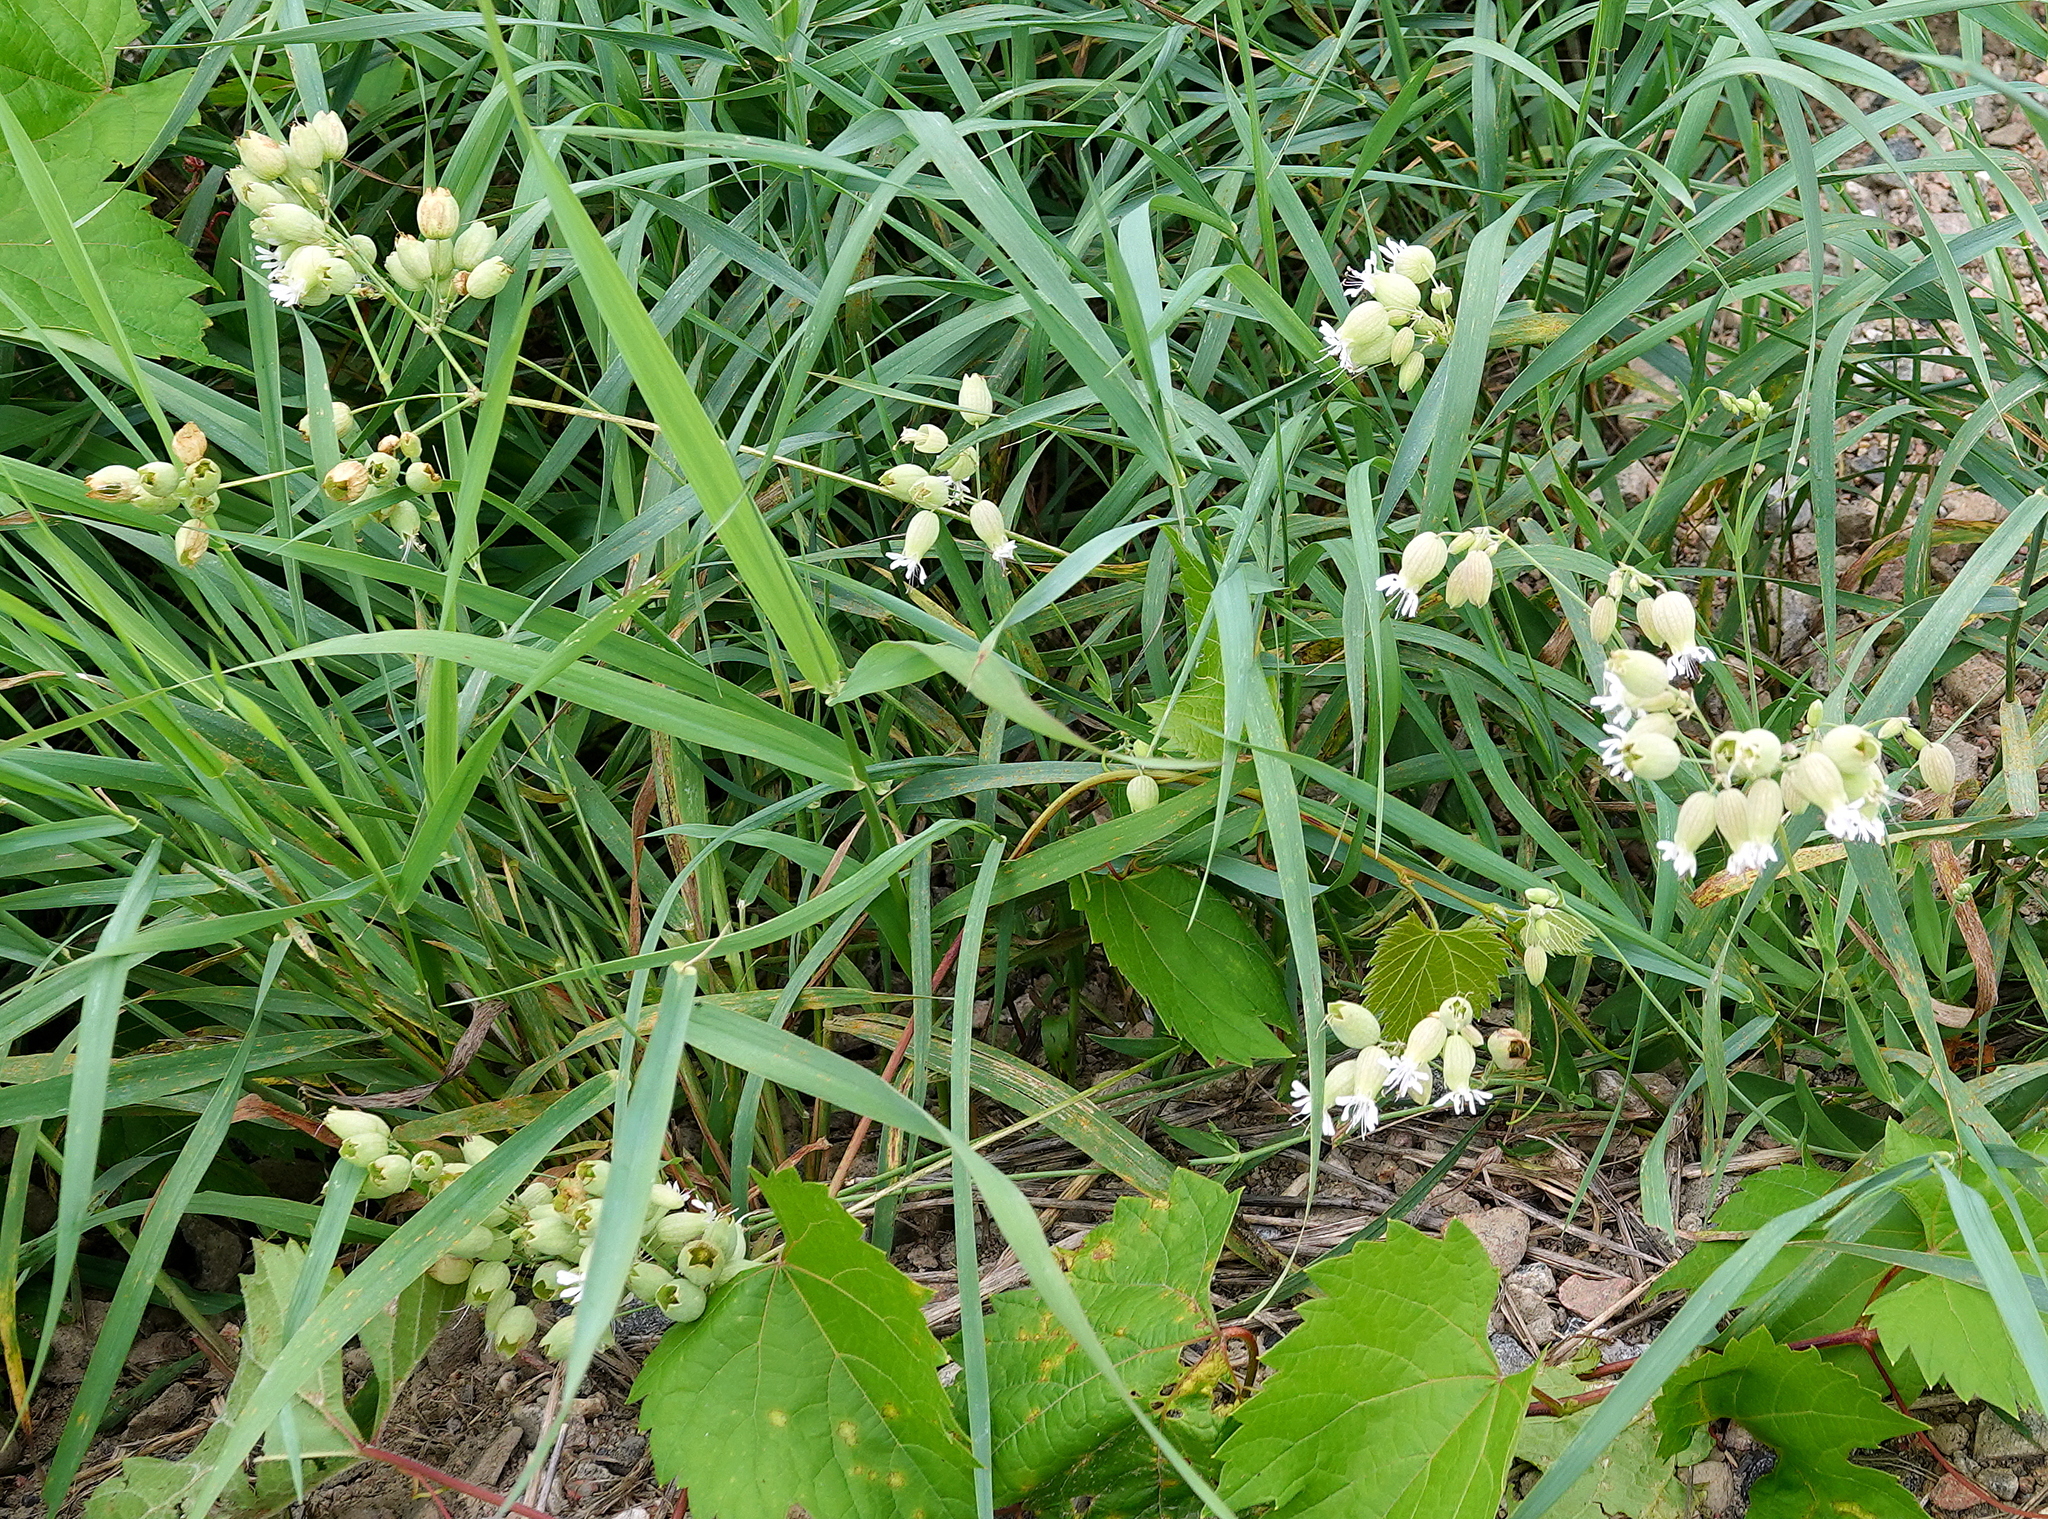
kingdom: Plantae
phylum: Tracheophyta
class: Magnoliopsida
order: Caryophyllales
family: Caryophyllaceae
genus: Silene
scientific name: Silene vulgaris
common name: Bladder campion
